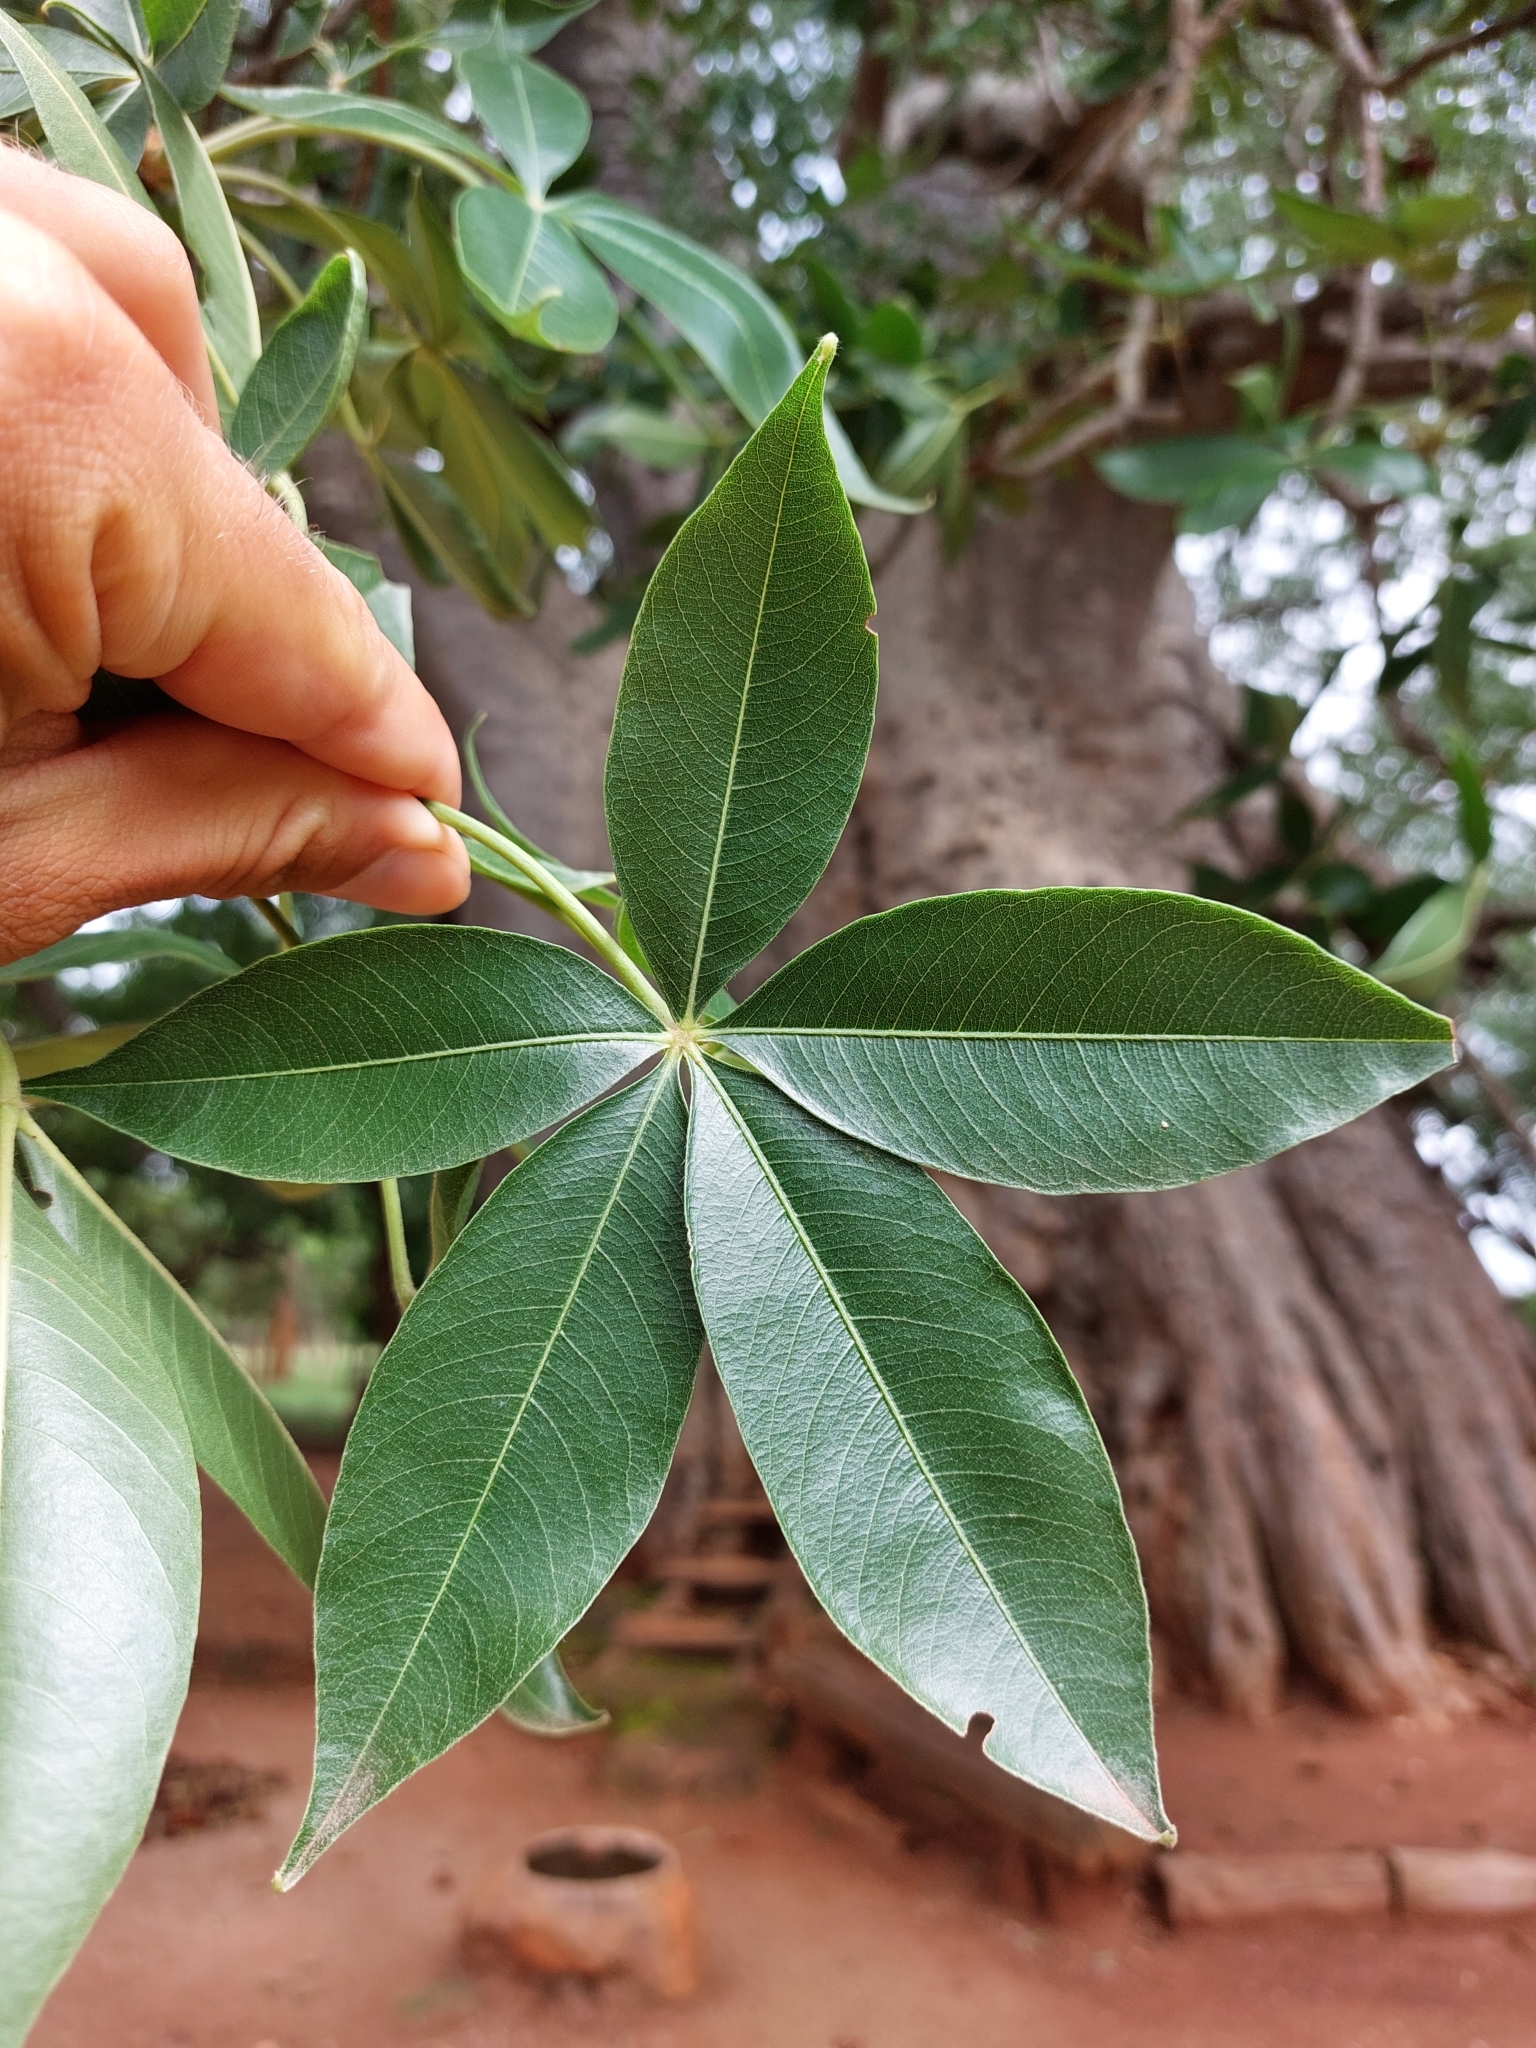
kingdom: Plantae
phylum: Tracheophyta
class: Magnoliopsida
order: Malvales
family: Malvaceae
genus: Adansonia
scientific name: Adansonia digitata
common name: Dead-rat-tree
